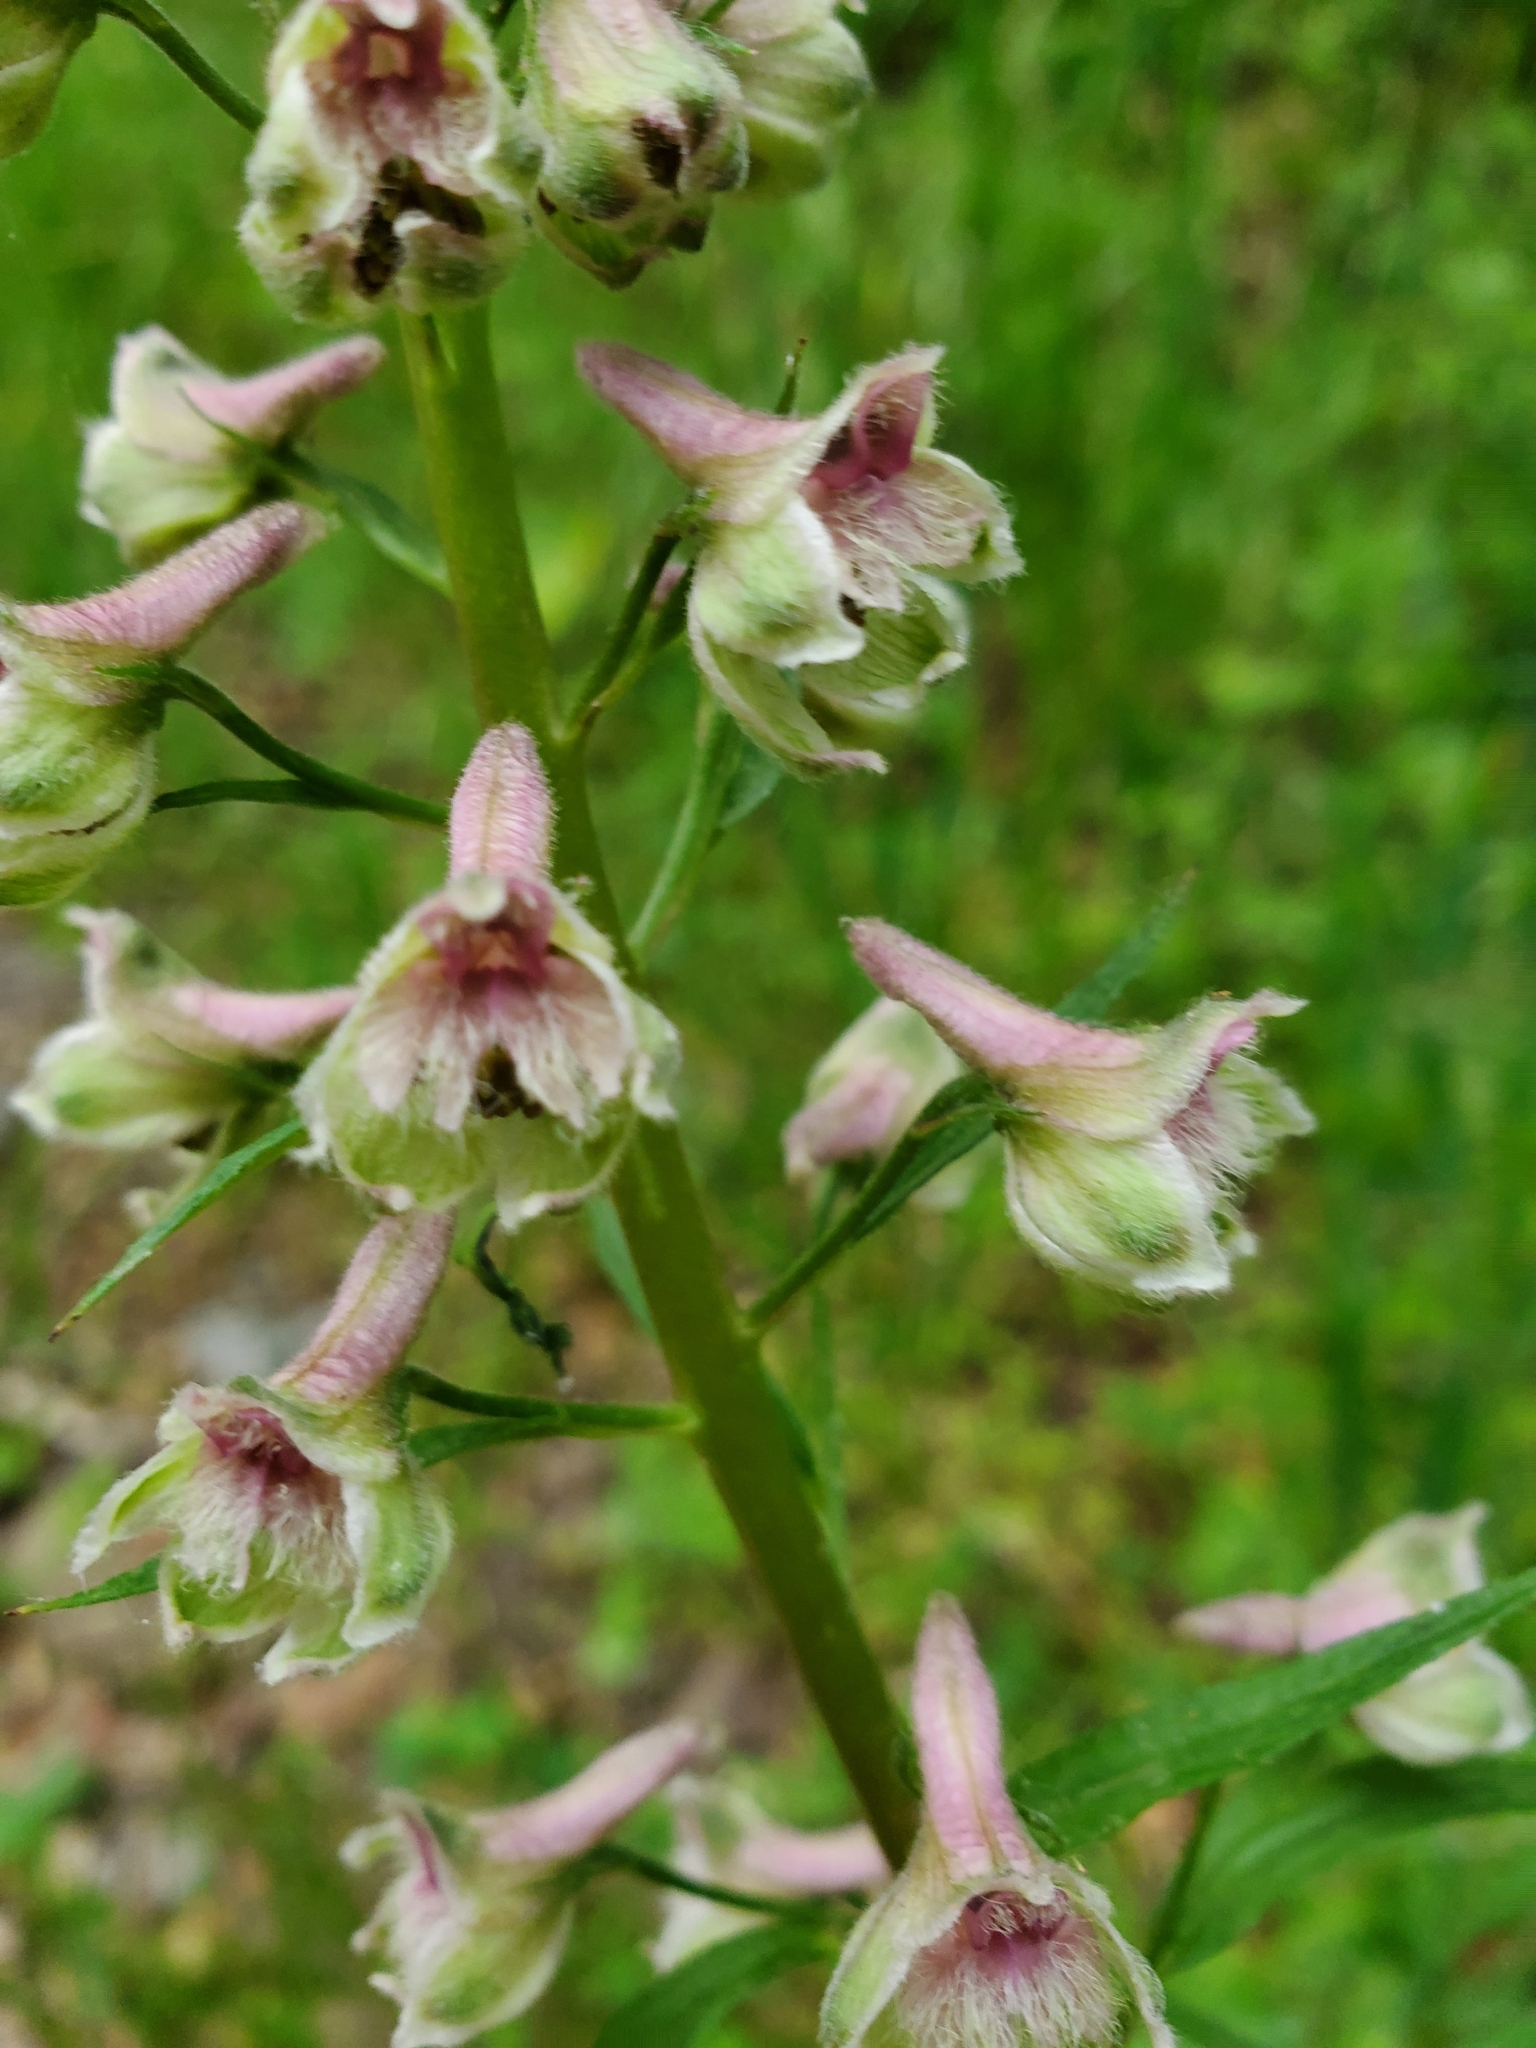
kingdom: Plantae
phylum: Tracheophyta
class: Magnoliopsida
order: Ranunculales
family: Ranunculaceae
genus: Delphinium
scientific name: Delphinium californicum
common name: California larkspur
